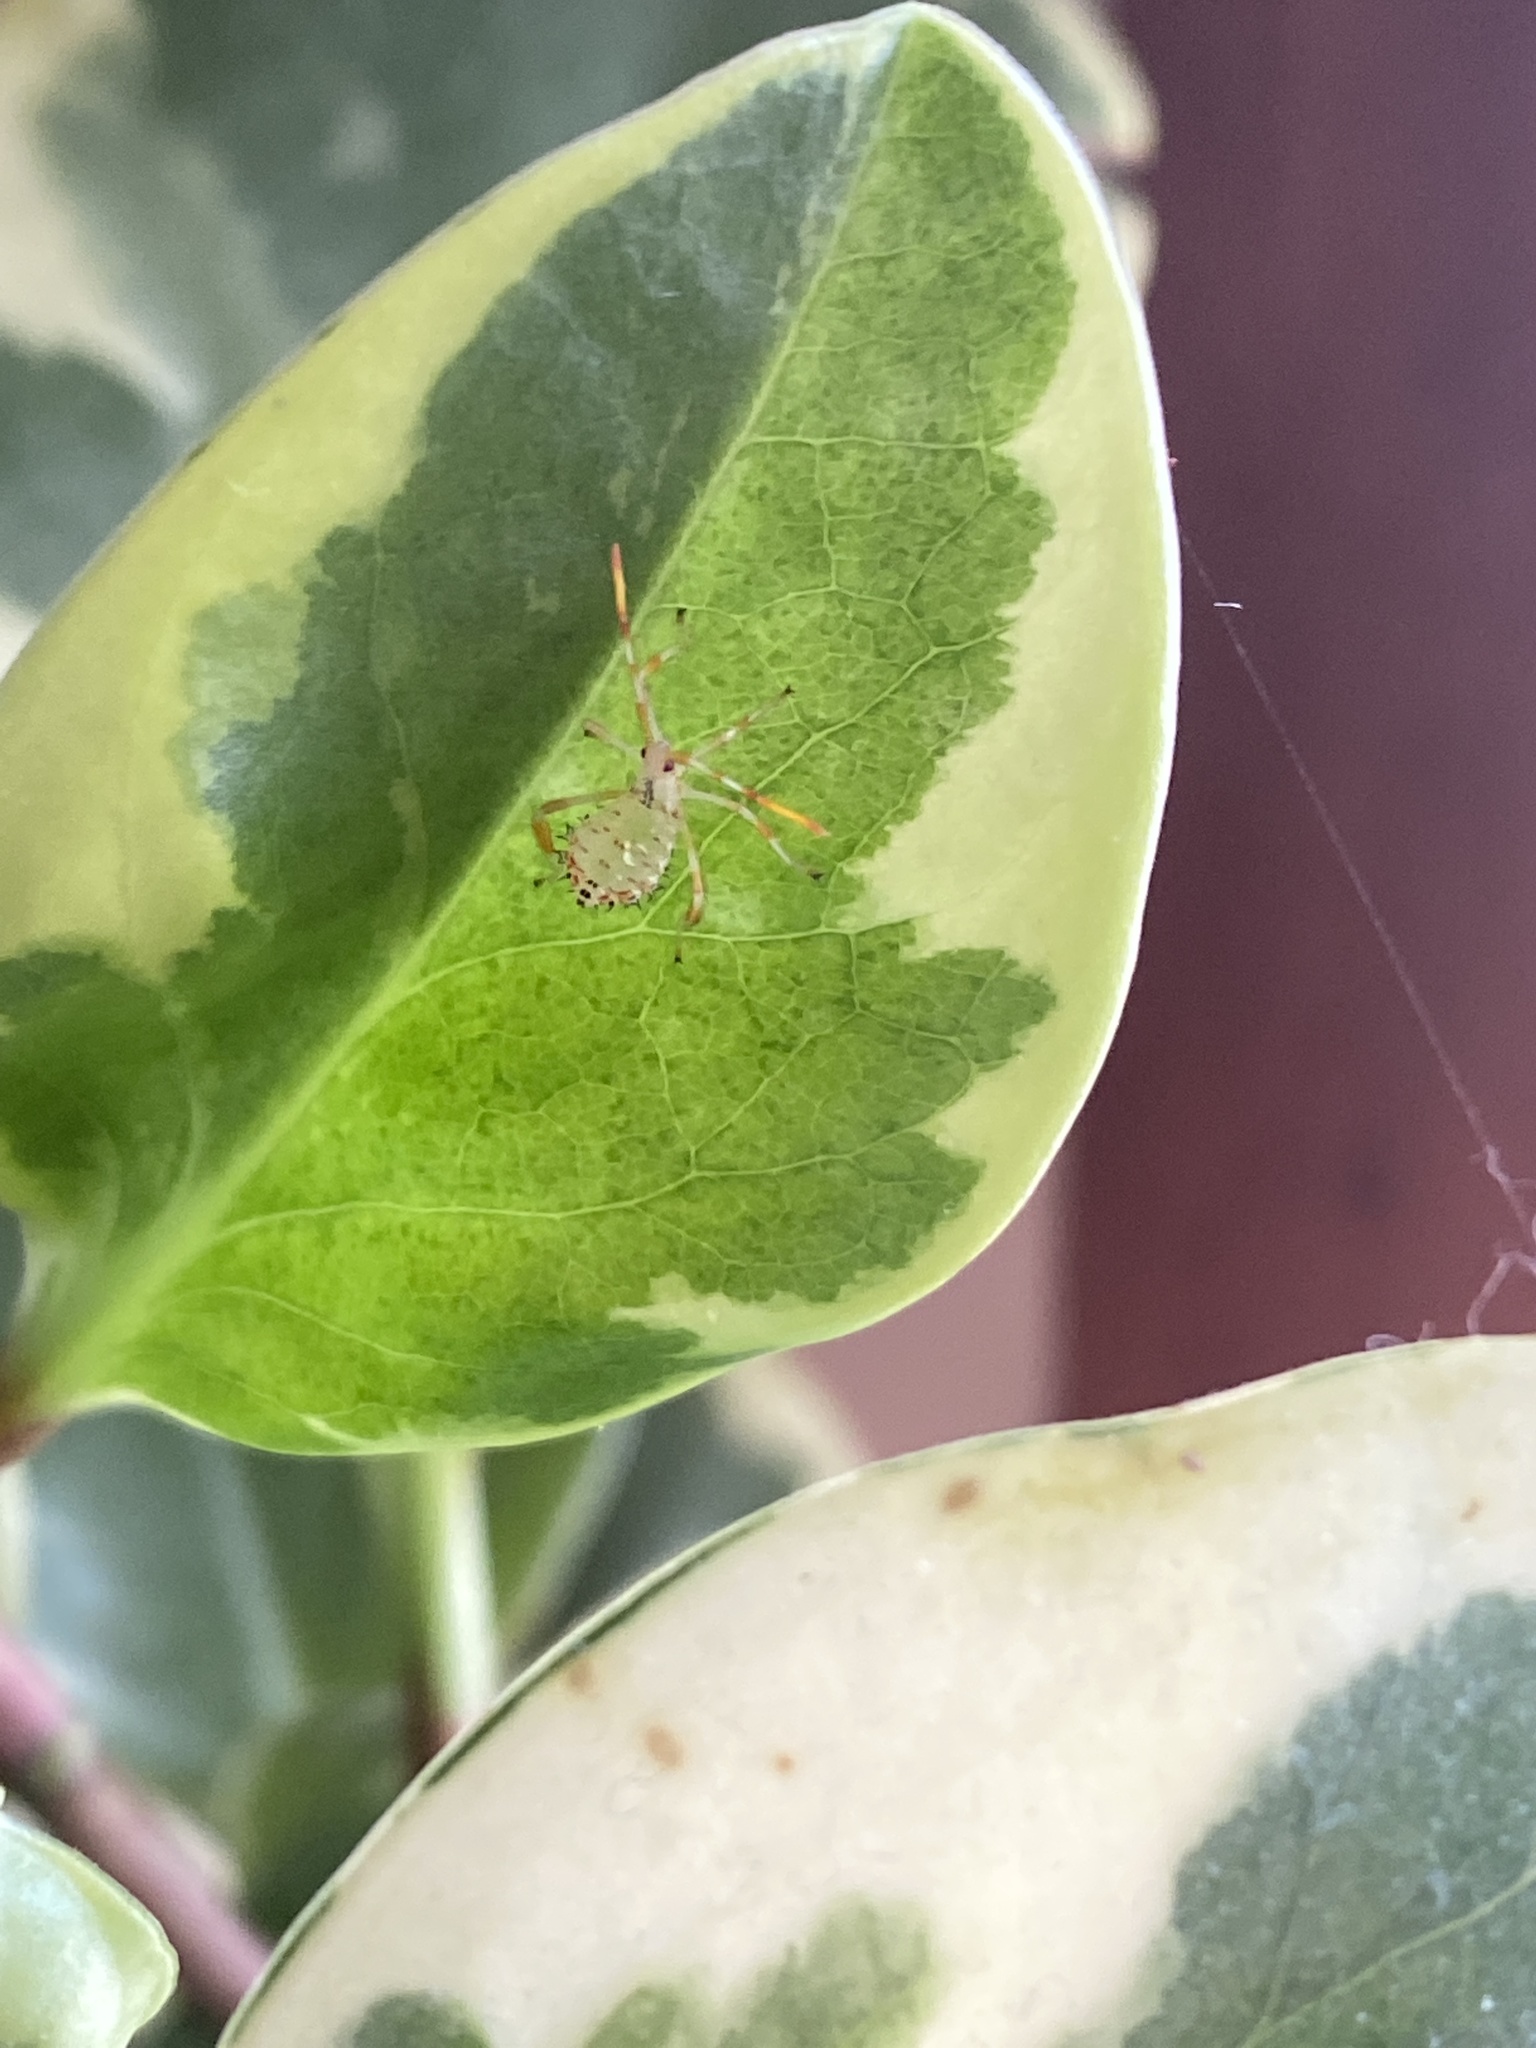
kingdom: Animalia
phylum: Arthropoda
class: Insecta
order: Hemiptera
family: Coreidae
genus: Acanthocephala
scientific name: Acanthocephala terminalis
